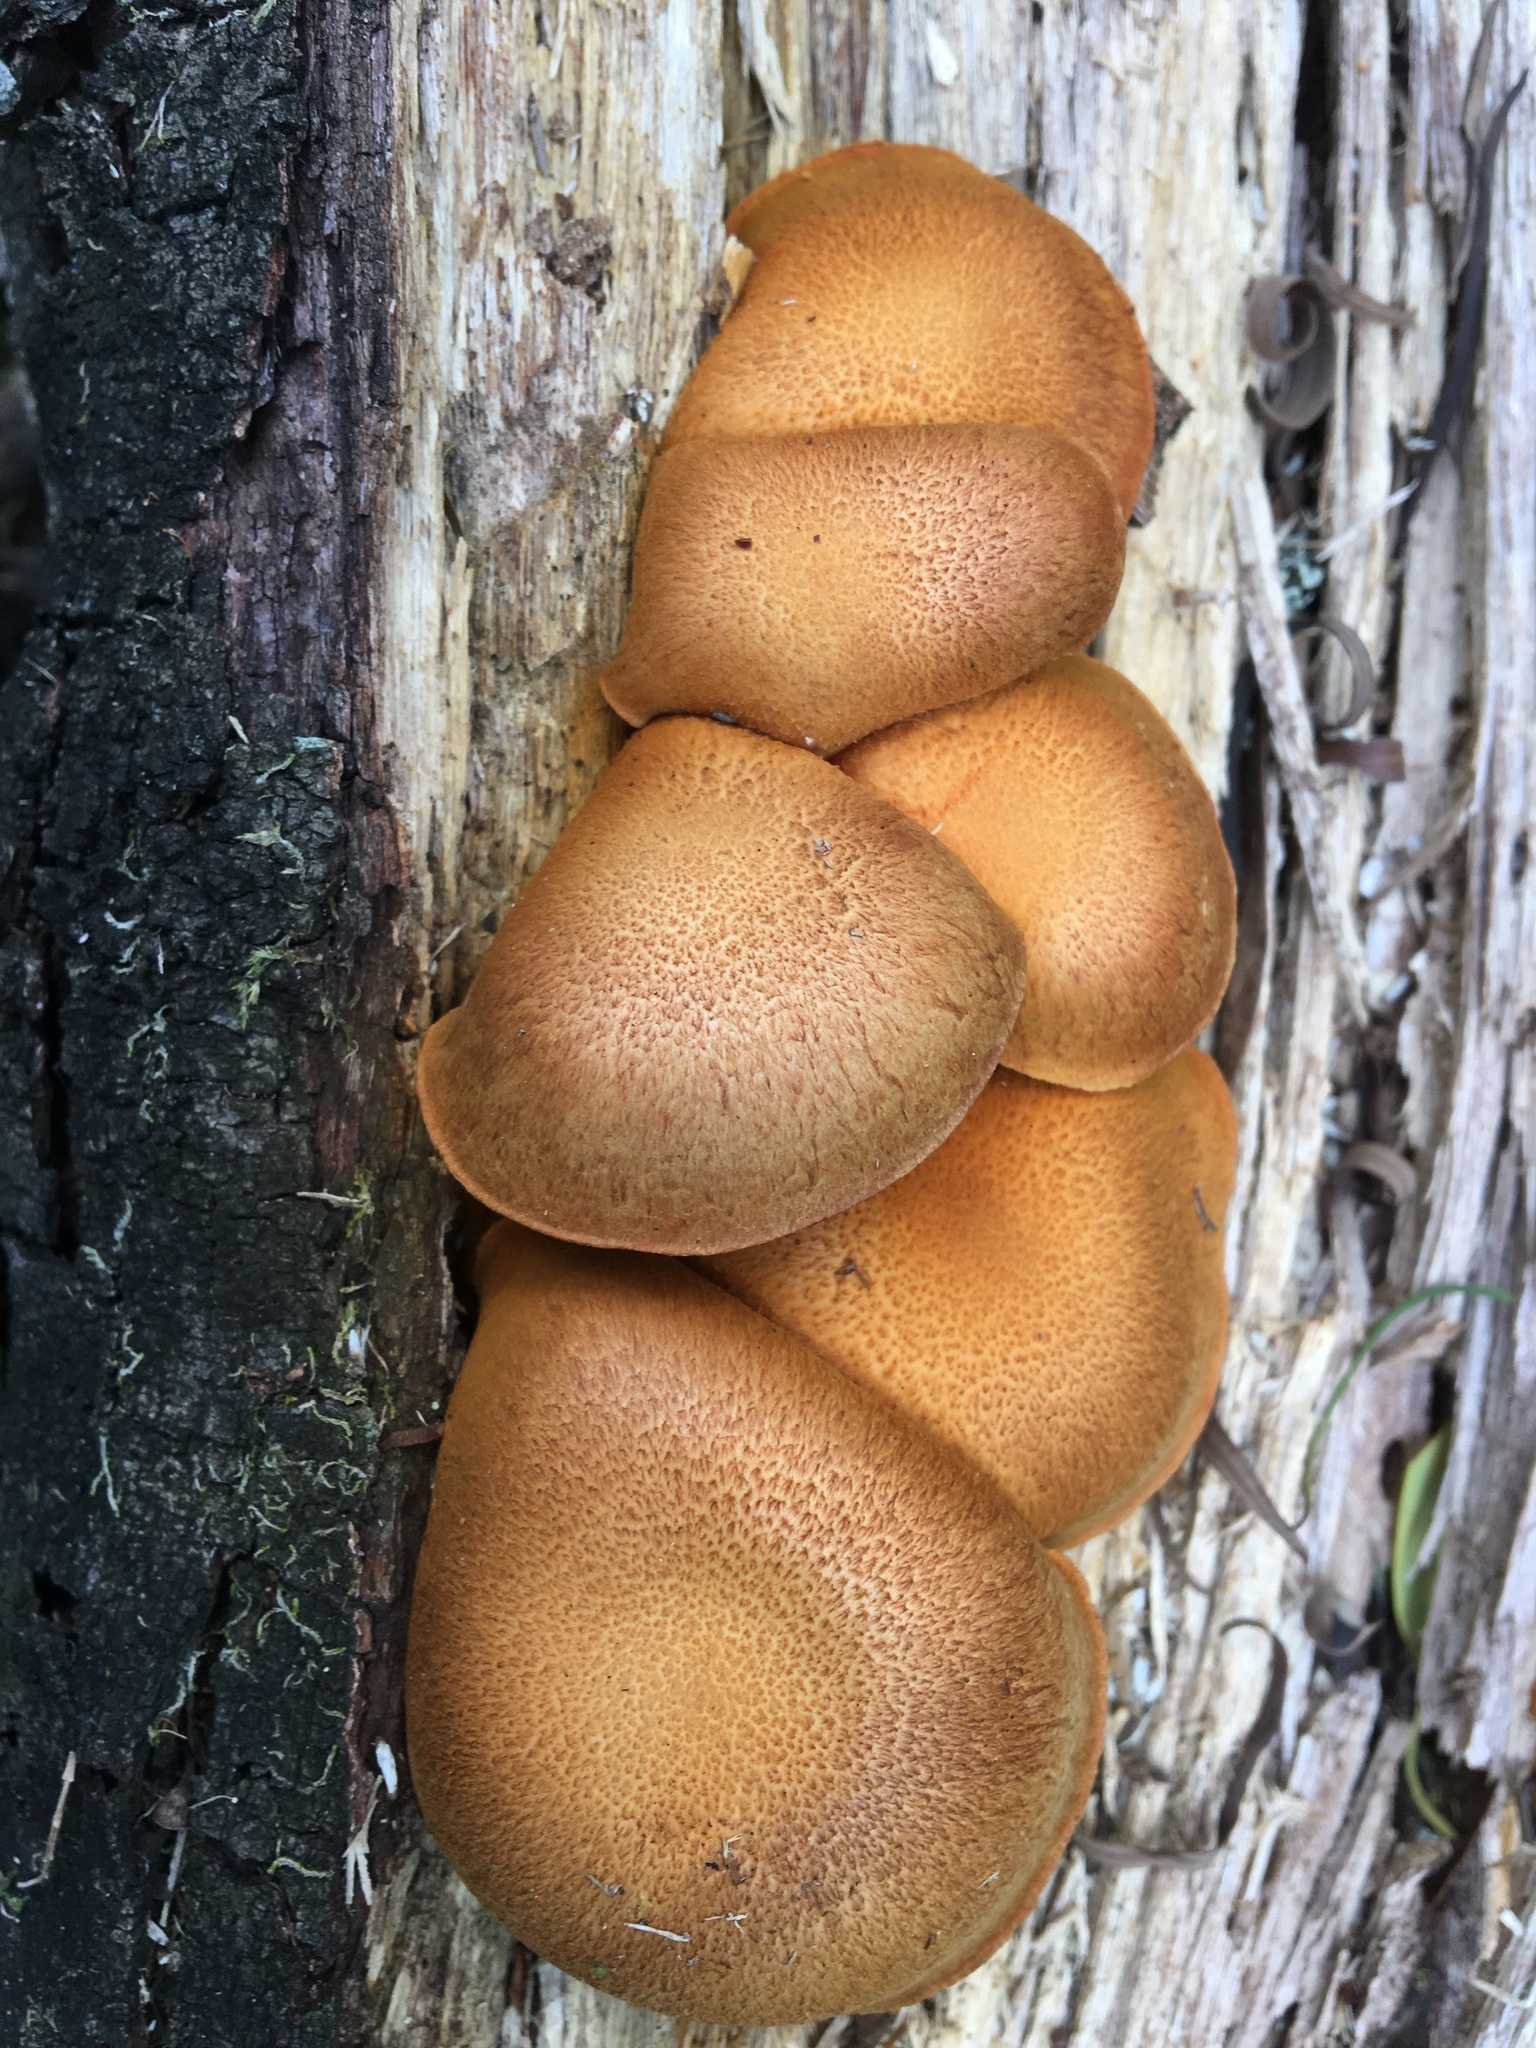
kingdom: Fungi
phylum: Basidiomycota
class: Agaricomycetes
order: Agaricales
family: Hymenogastraceae
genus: Gymnopilus
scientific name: Gymnopilus junonius
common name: Spectacular rustgill
